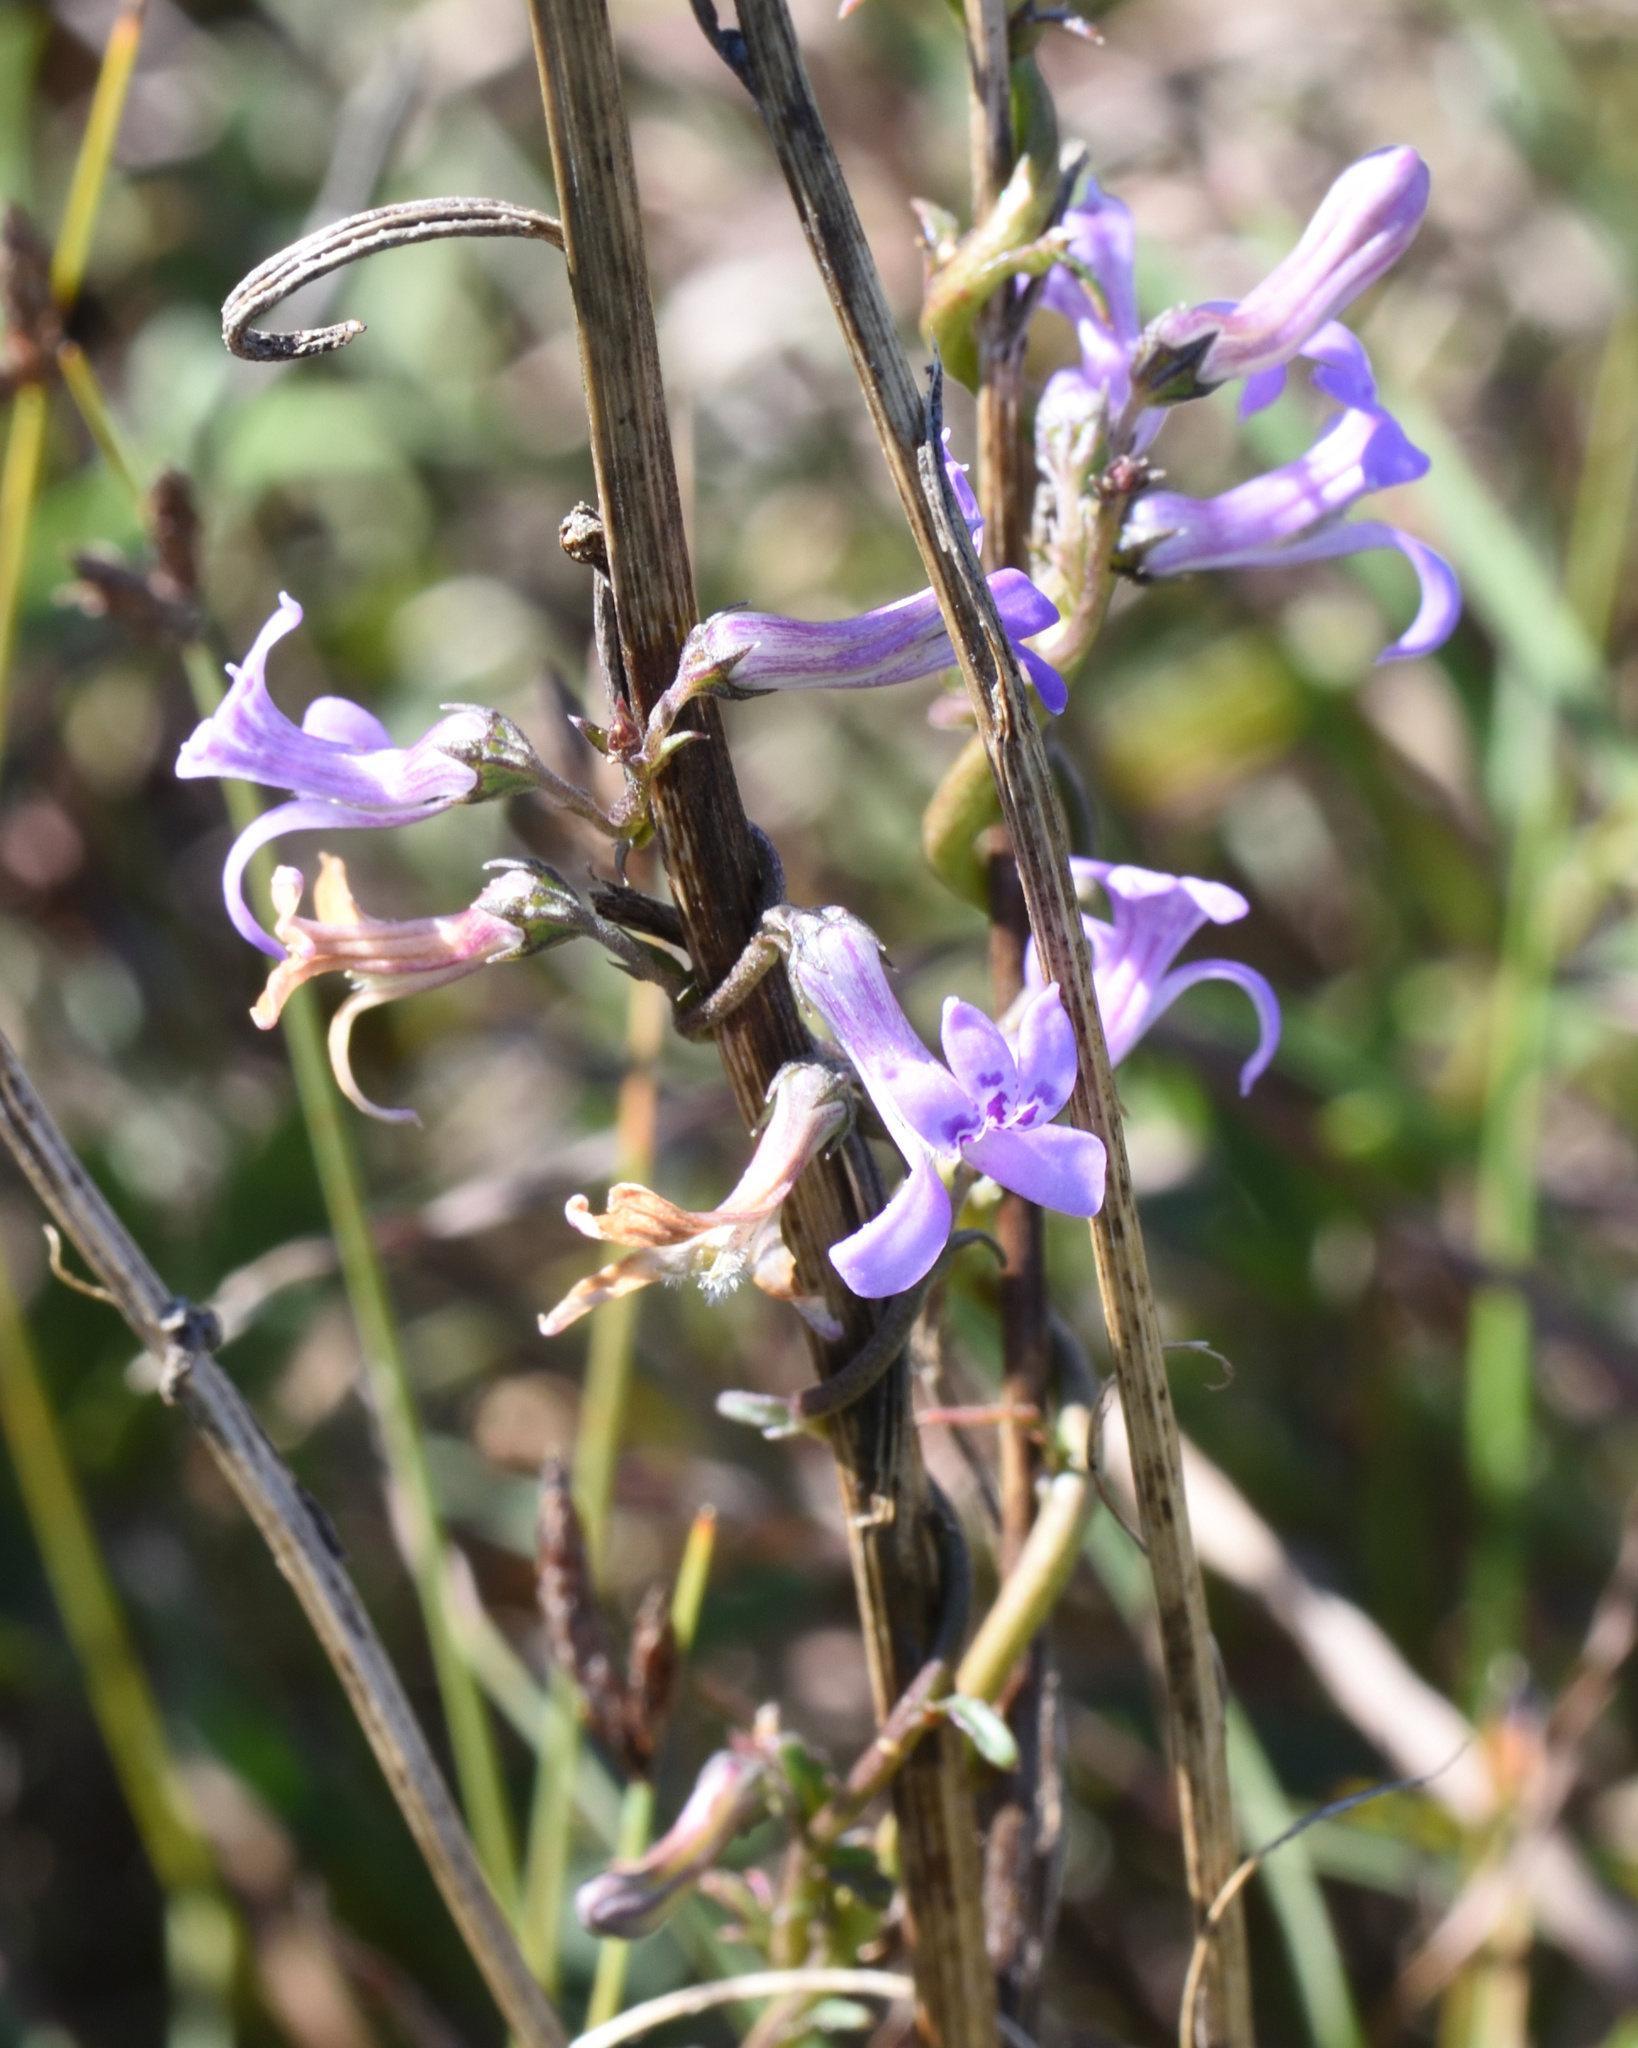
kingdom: Plantae
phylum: Tracheophyta
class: Magnoliopsida
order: Asterales
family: Campanulaceae
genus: Cyphia
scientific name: Cyphia heterophylla
